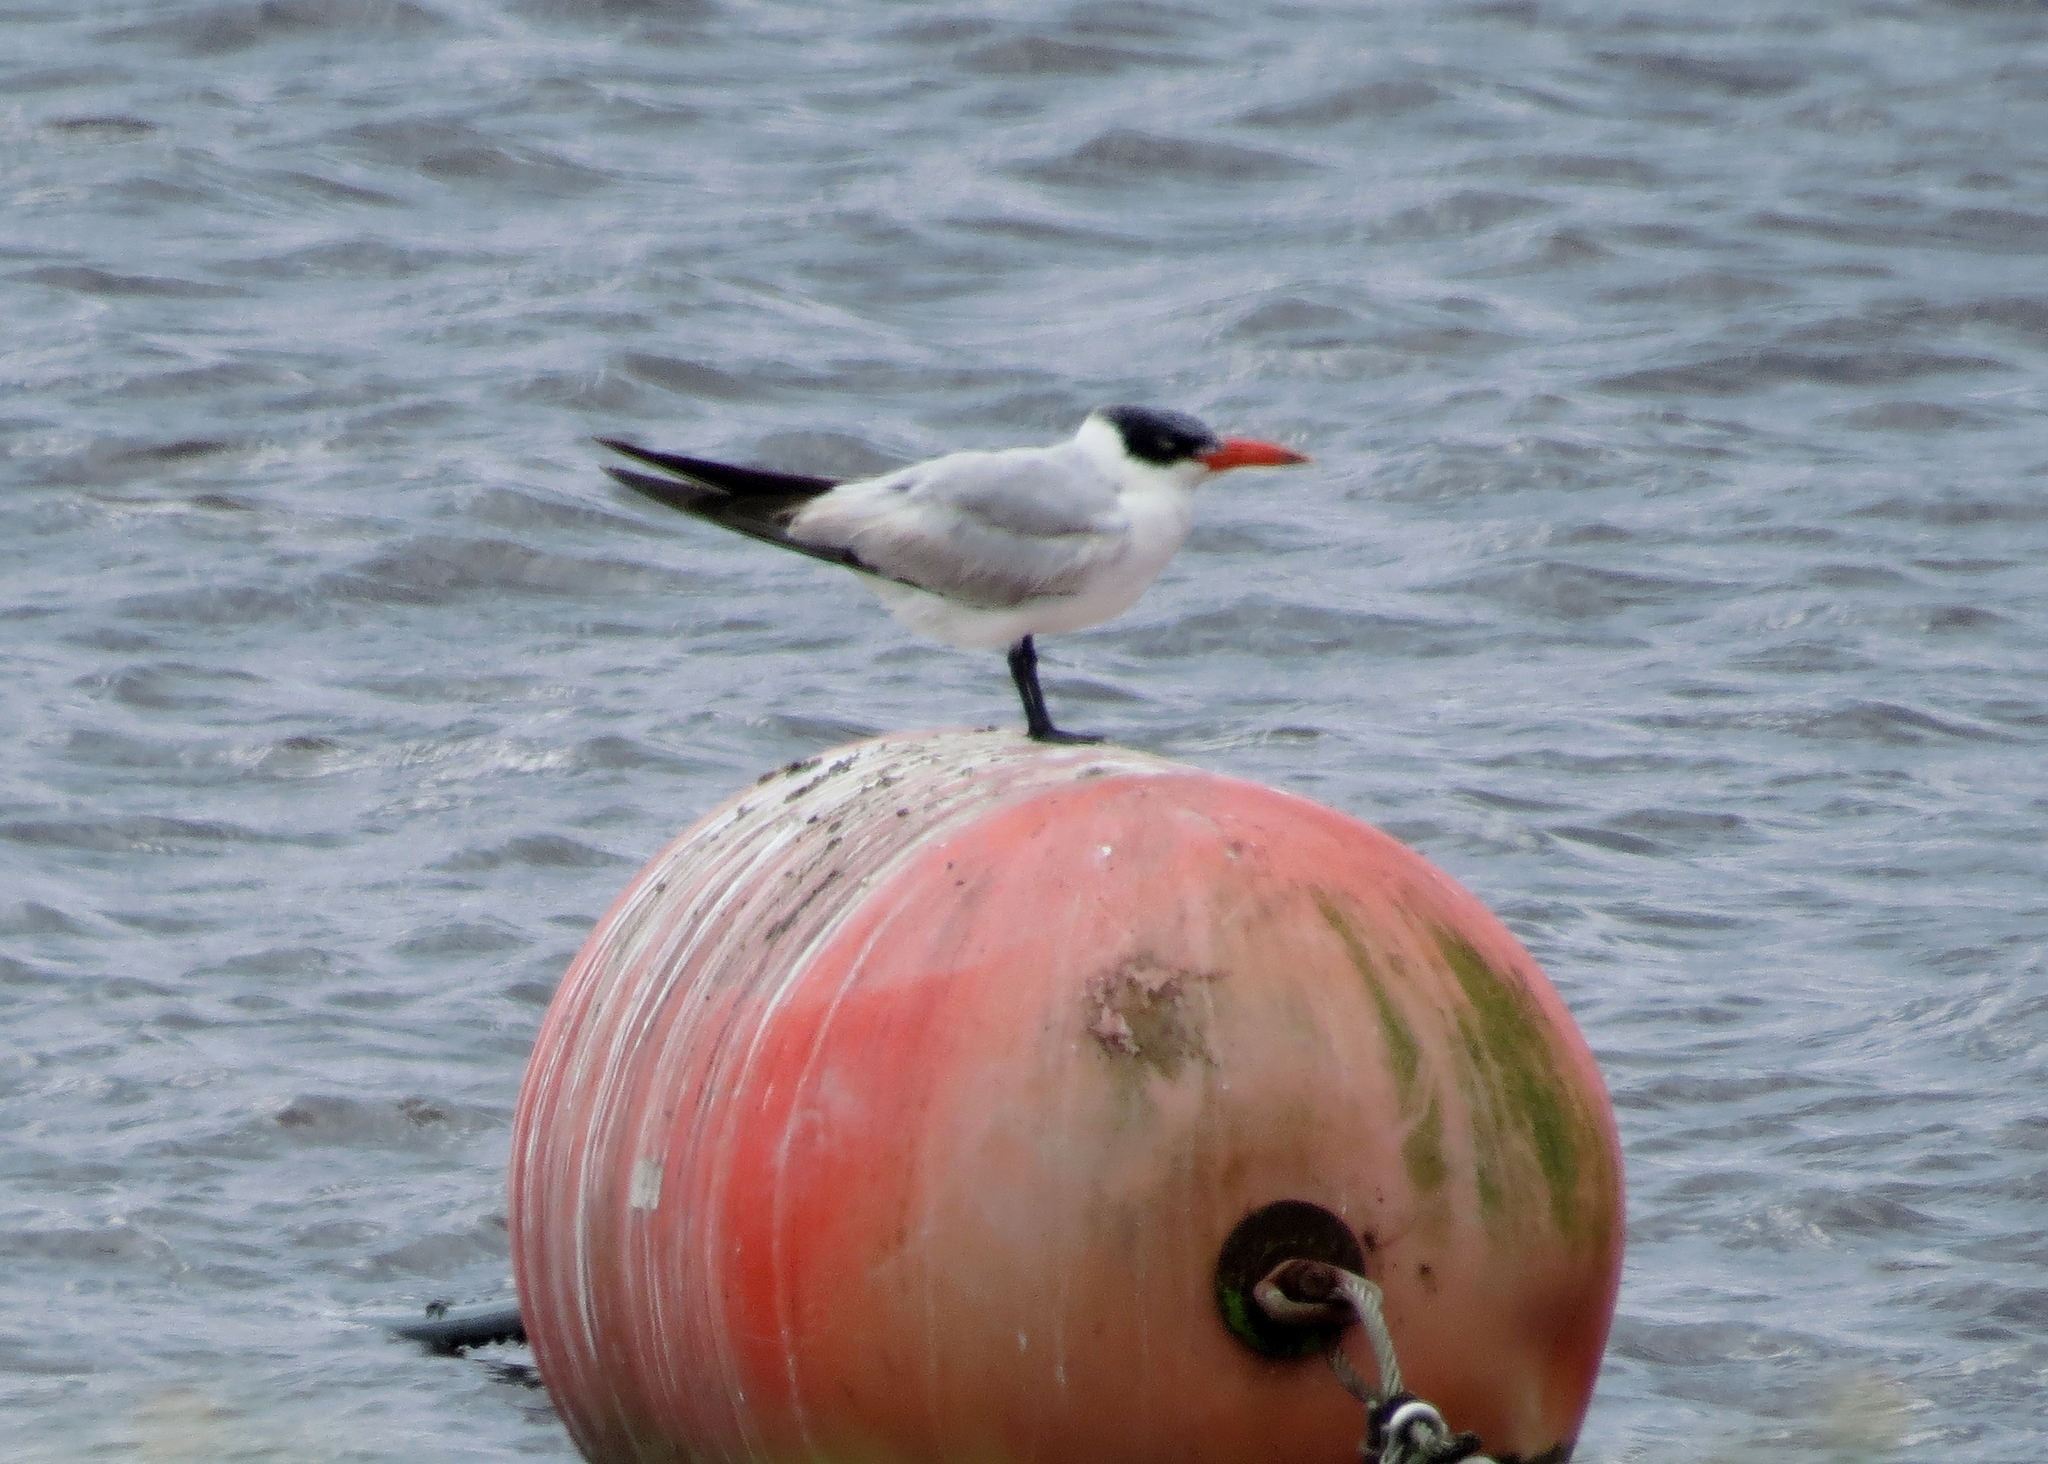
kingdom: Animalia
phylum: Chordata
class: Aves
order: Charadriiformes
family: Laridae
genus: Hydroprogne
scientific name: Hydroprogne caspia
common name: Caspian tern
